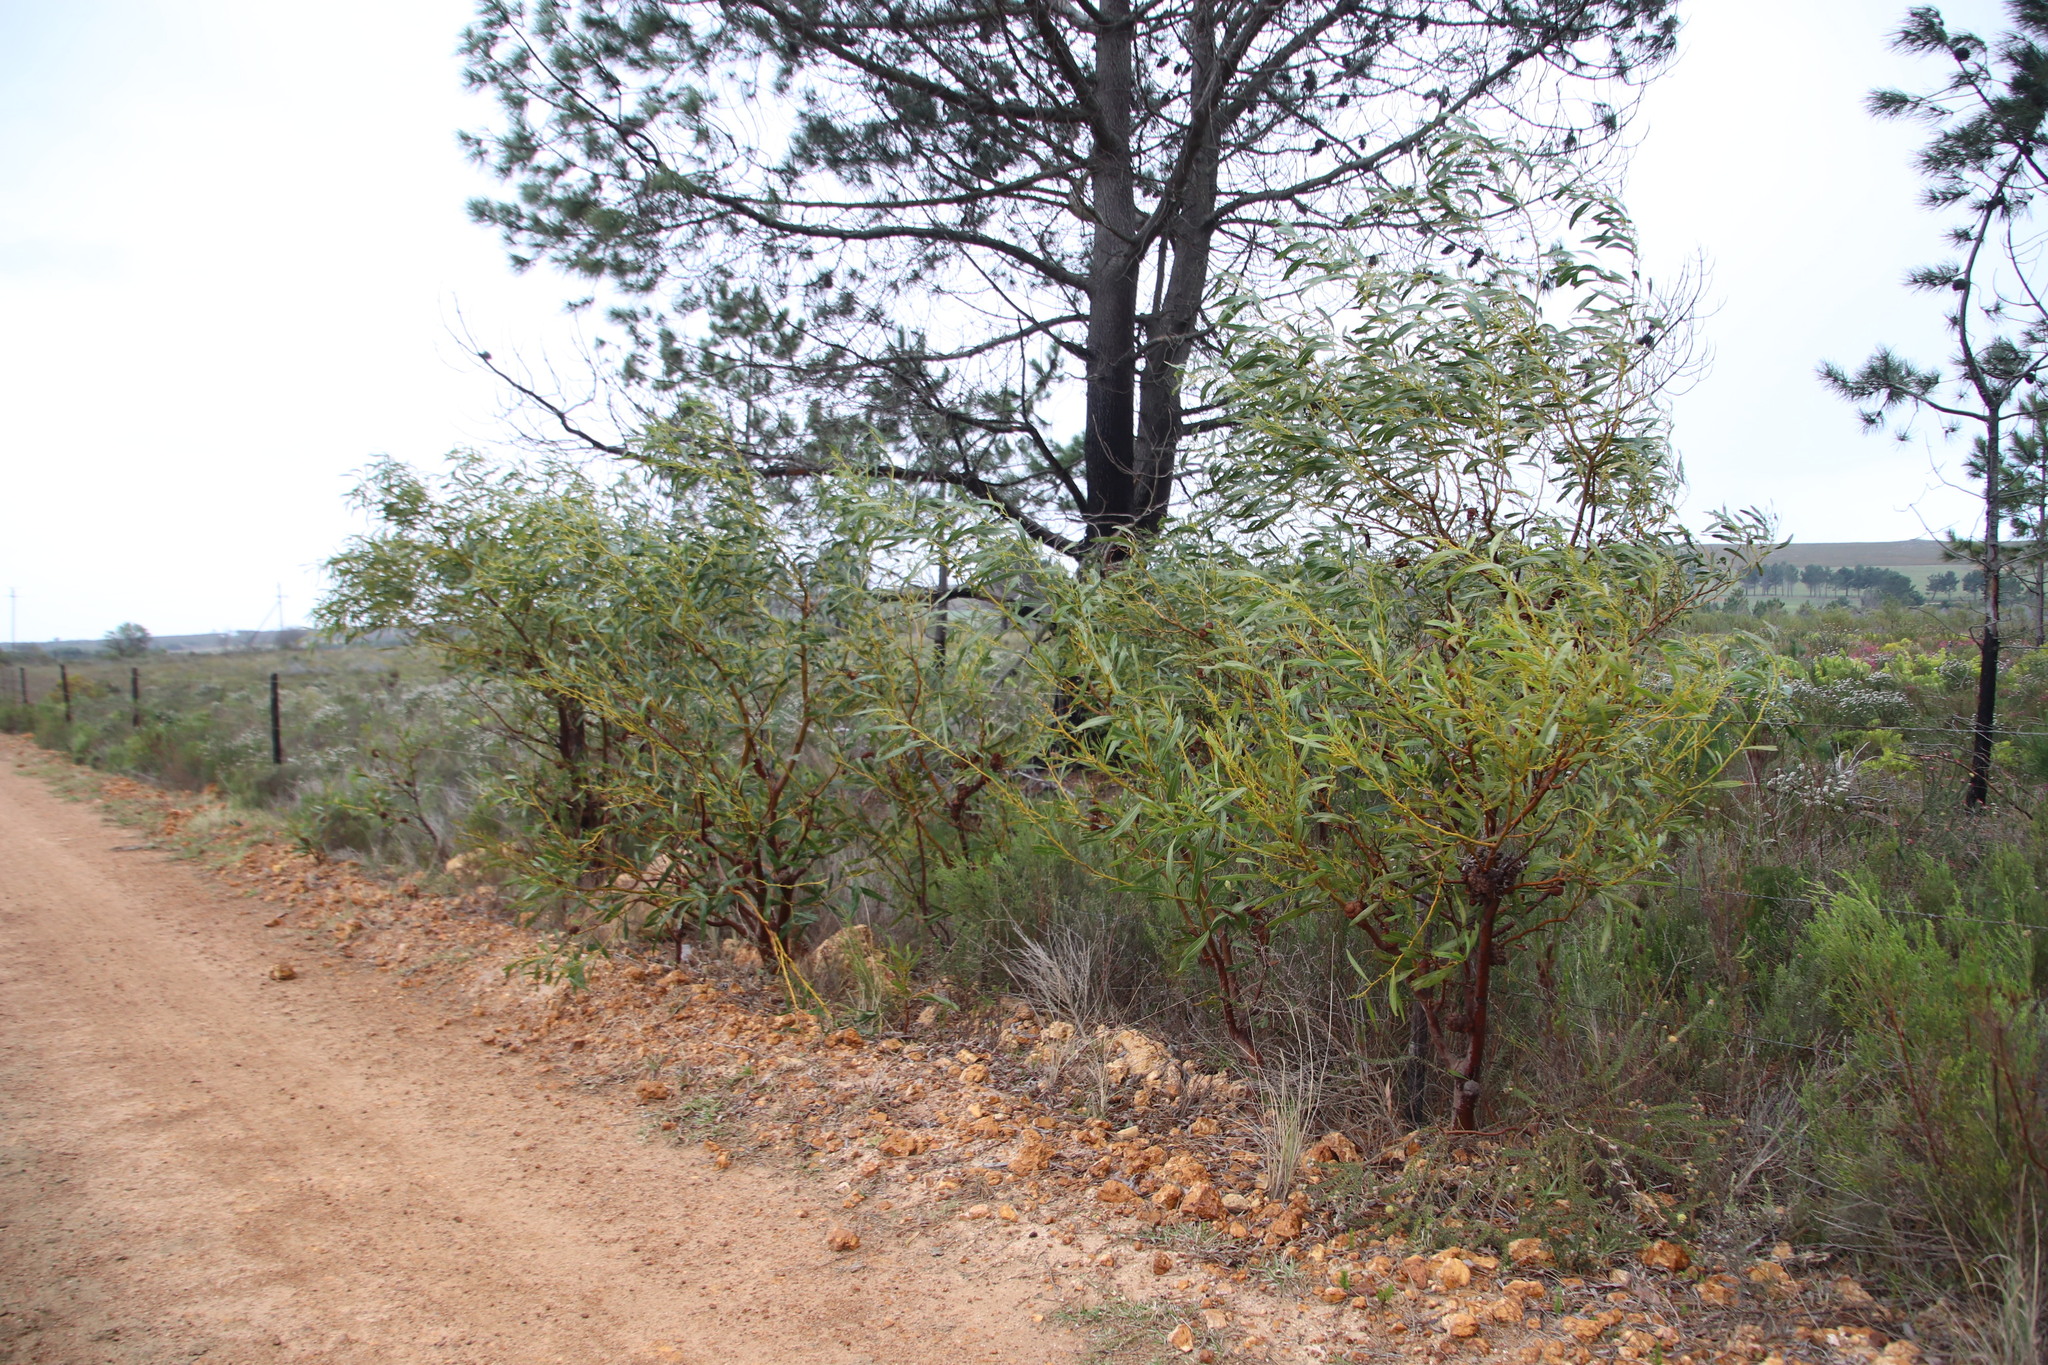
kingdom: Plantae
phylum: Tracheophyta
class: Magnoliopsida
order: Fabales
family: Fabaceae
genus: Acacia
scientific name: Acacia saligna
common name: Orange wattle
